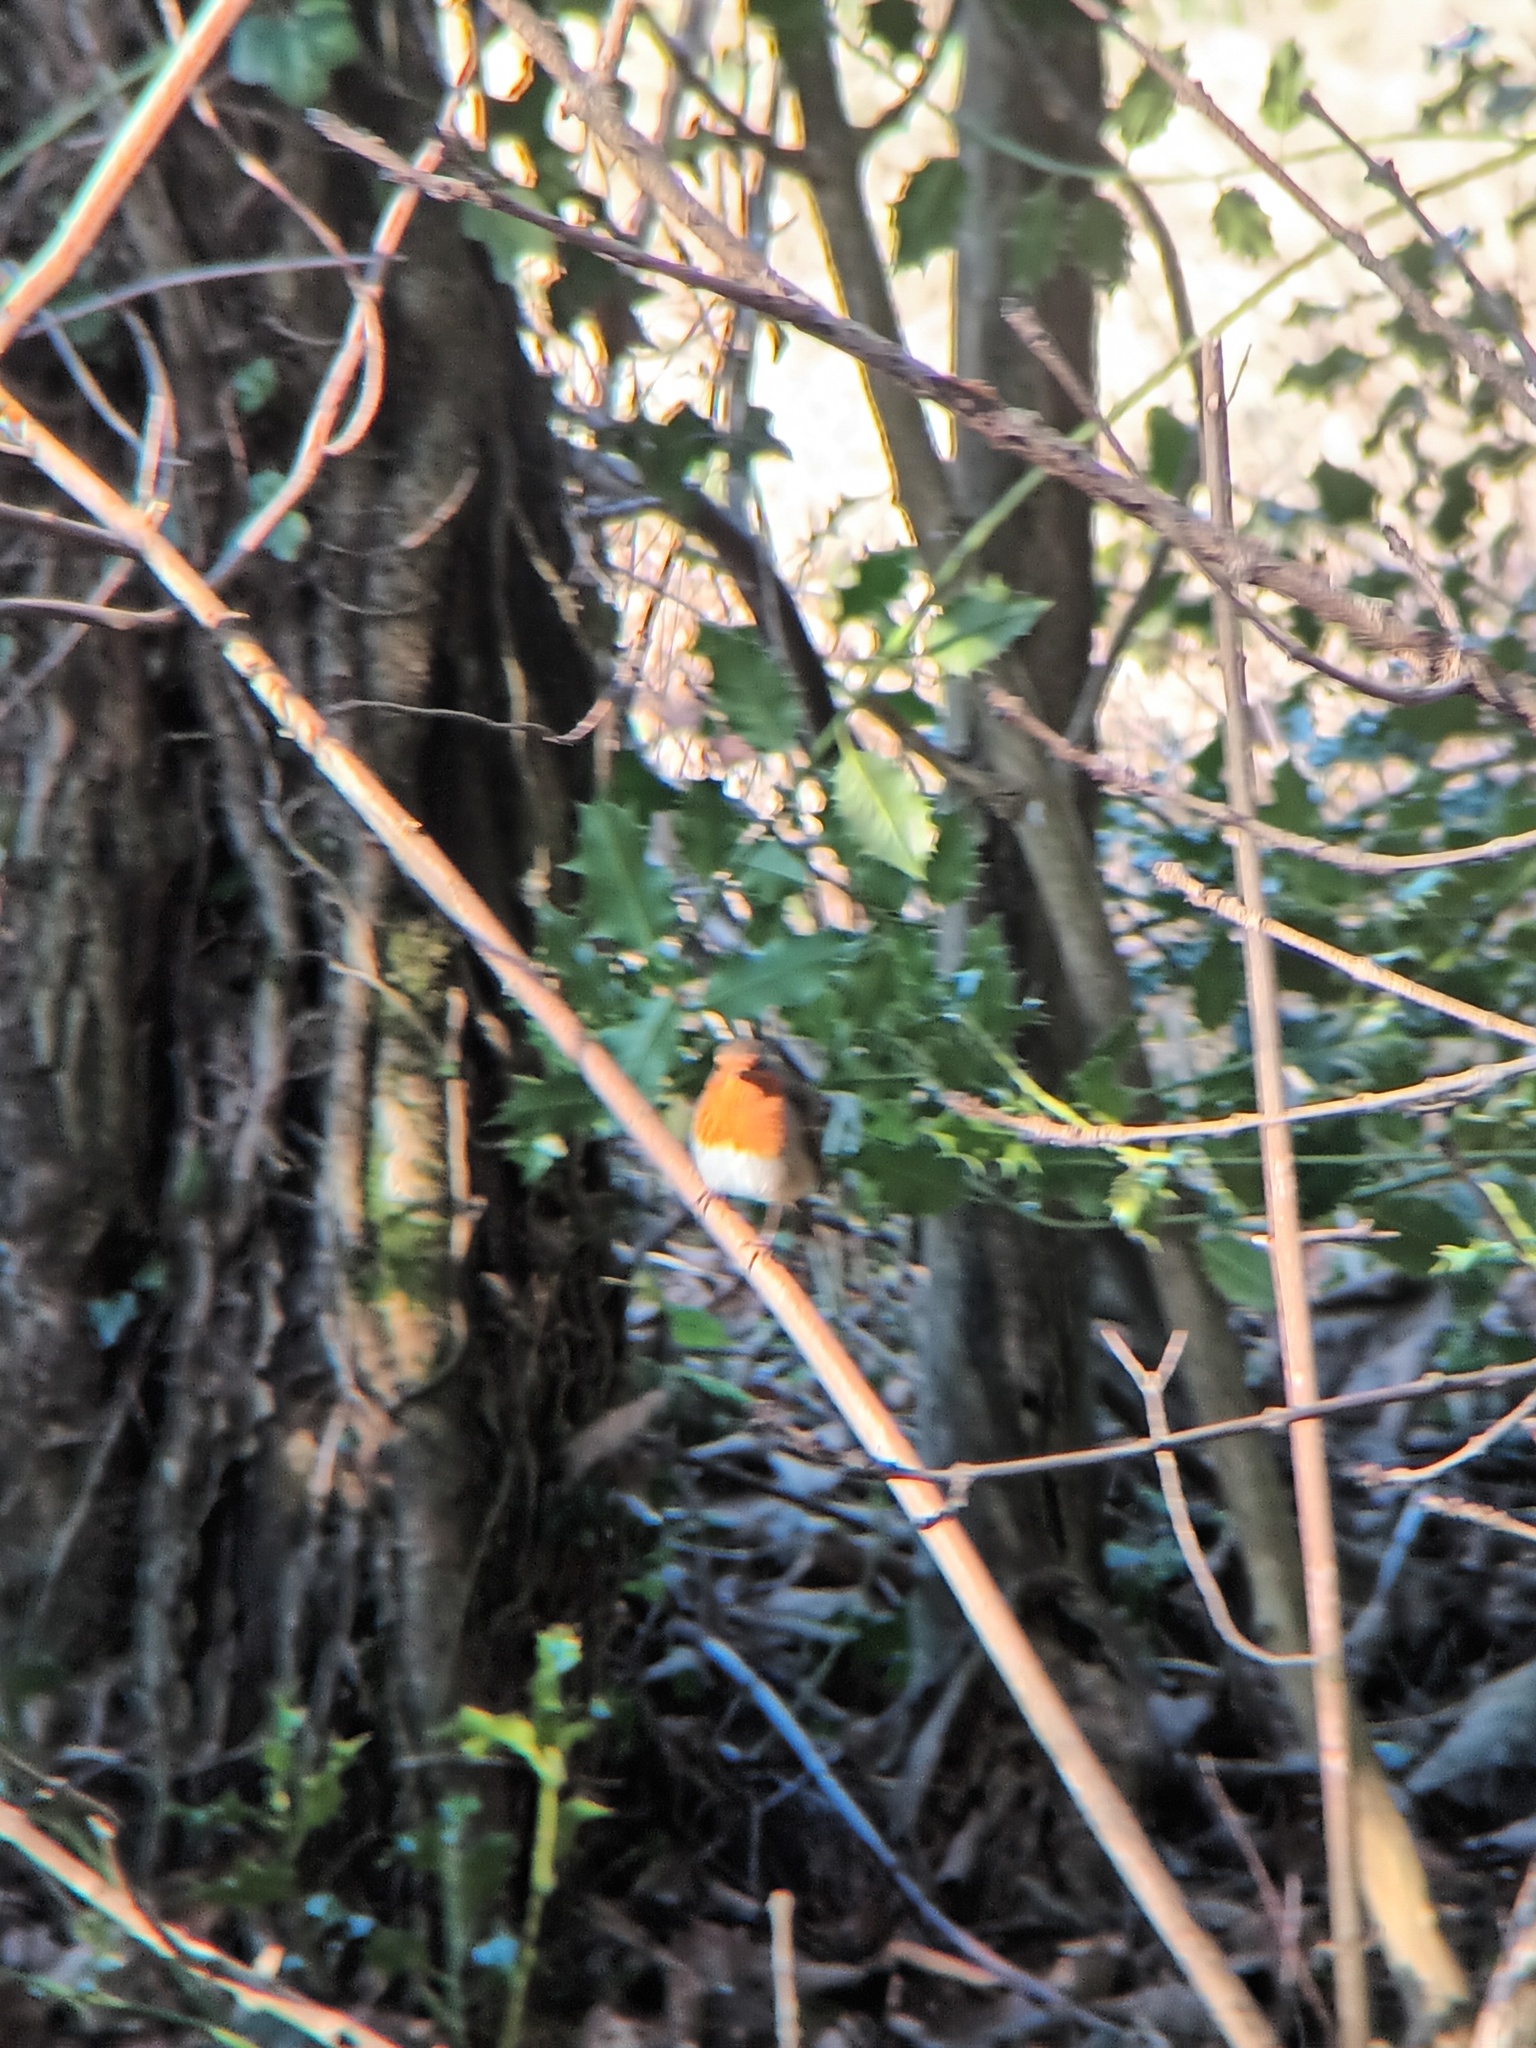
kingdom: Animalia
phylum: Chordata
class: Aves
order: Passeriformes
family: Muscicapidae
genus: Erithacus
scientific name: Erithacus rubecula
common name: European robin
